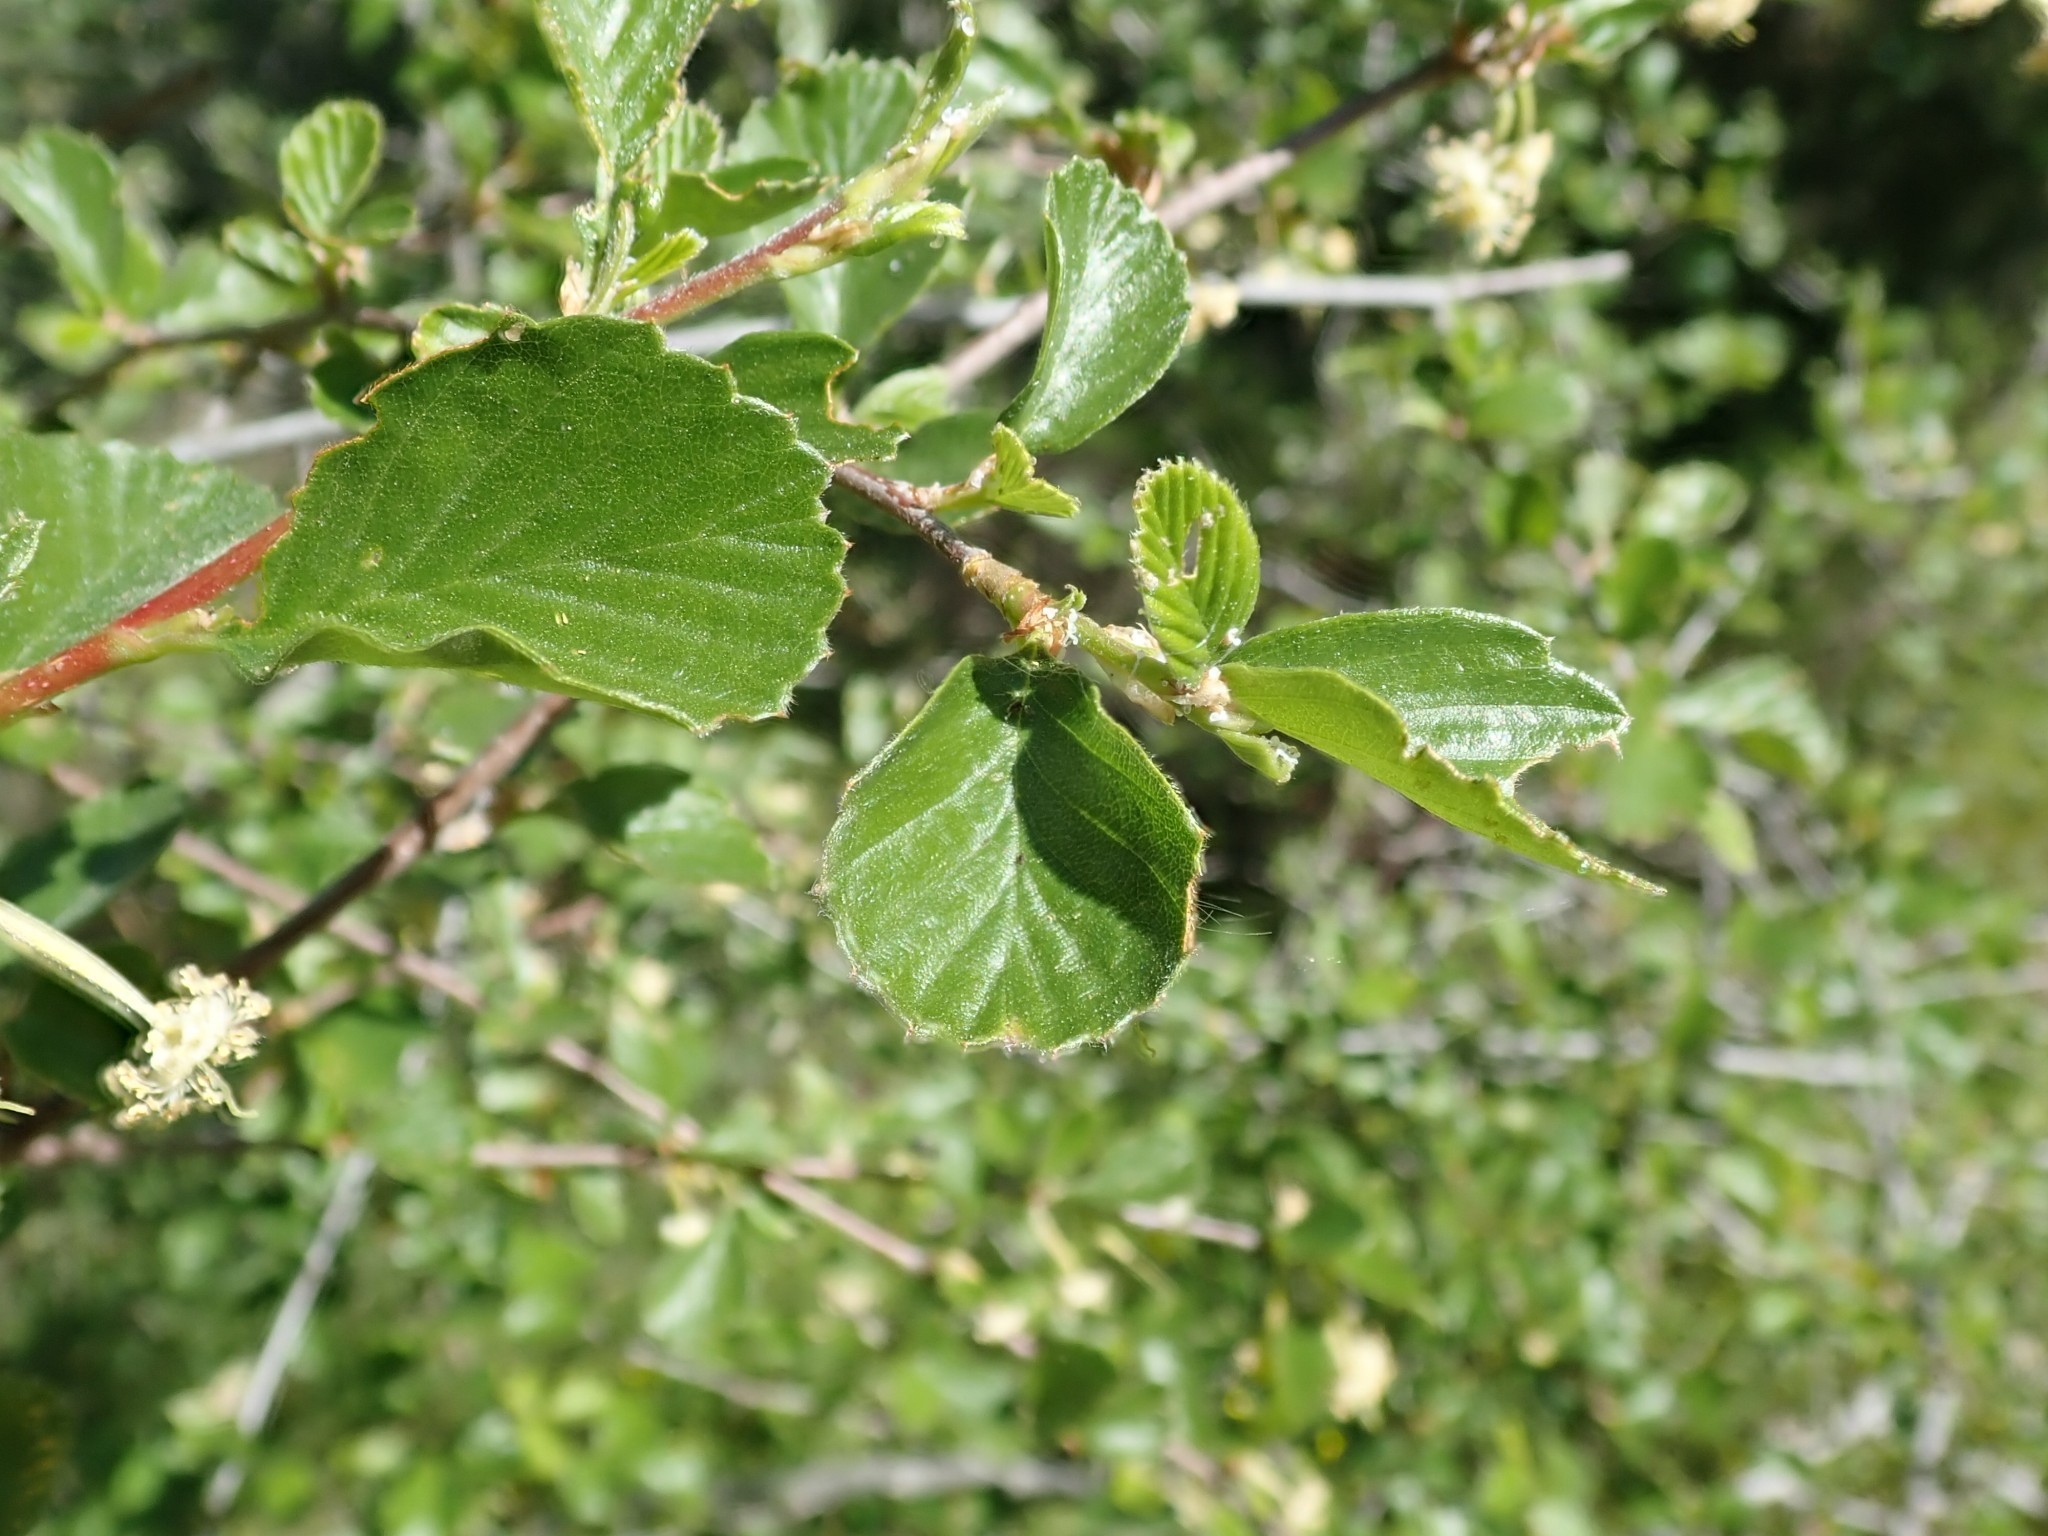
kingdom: Plantae
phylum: Tracheophyta
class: Magnoliopsida
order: Rosales
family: Rosaceae
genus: Cercocarpus
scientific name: Cercocarpus betuloides
